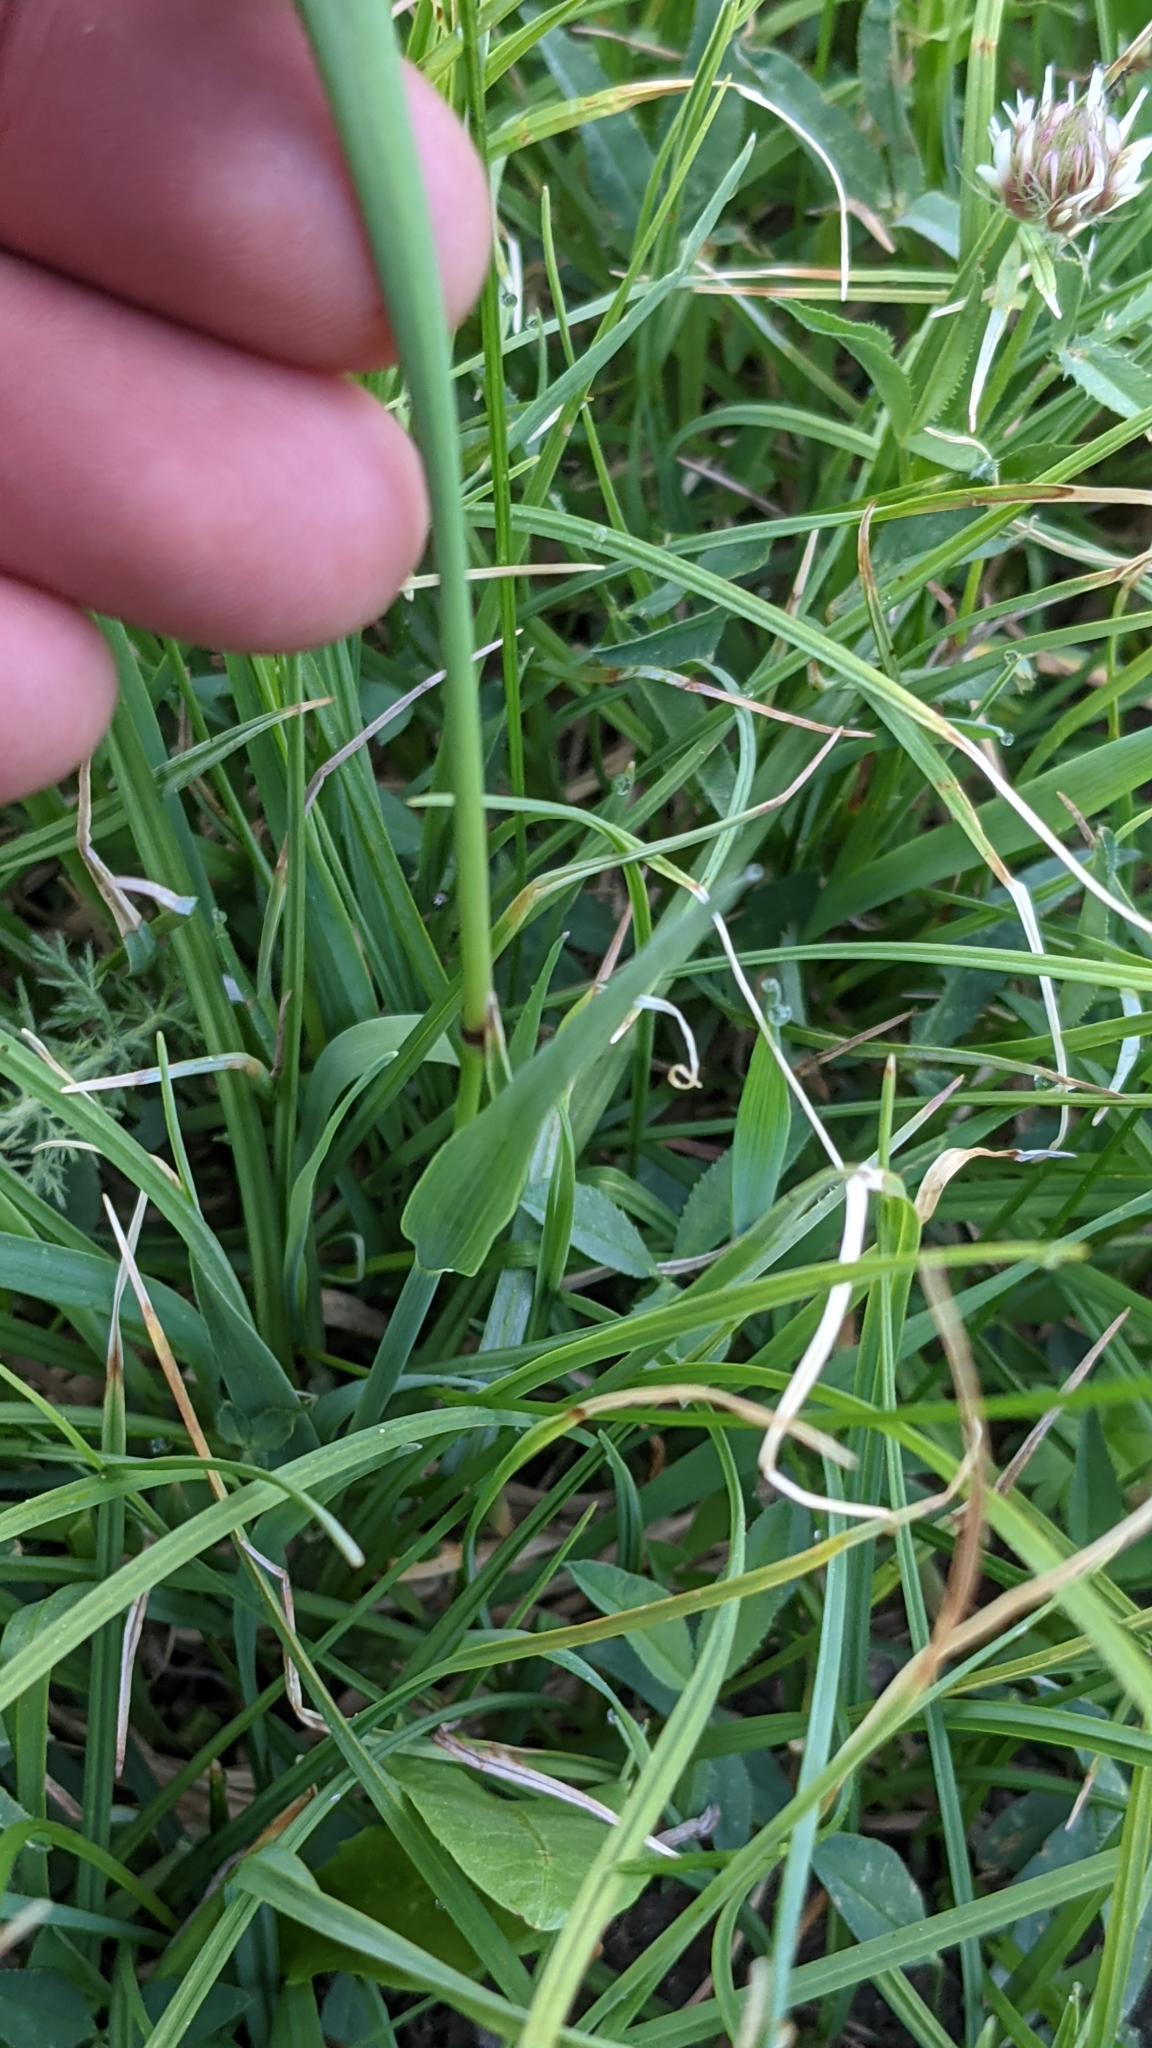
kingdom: Plantae
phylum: Tracheophyta
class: Liliopsida
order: Poales
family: Poaceae
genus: Phleum
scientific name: Phleum alpinum
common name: Alpine cat's-tail
